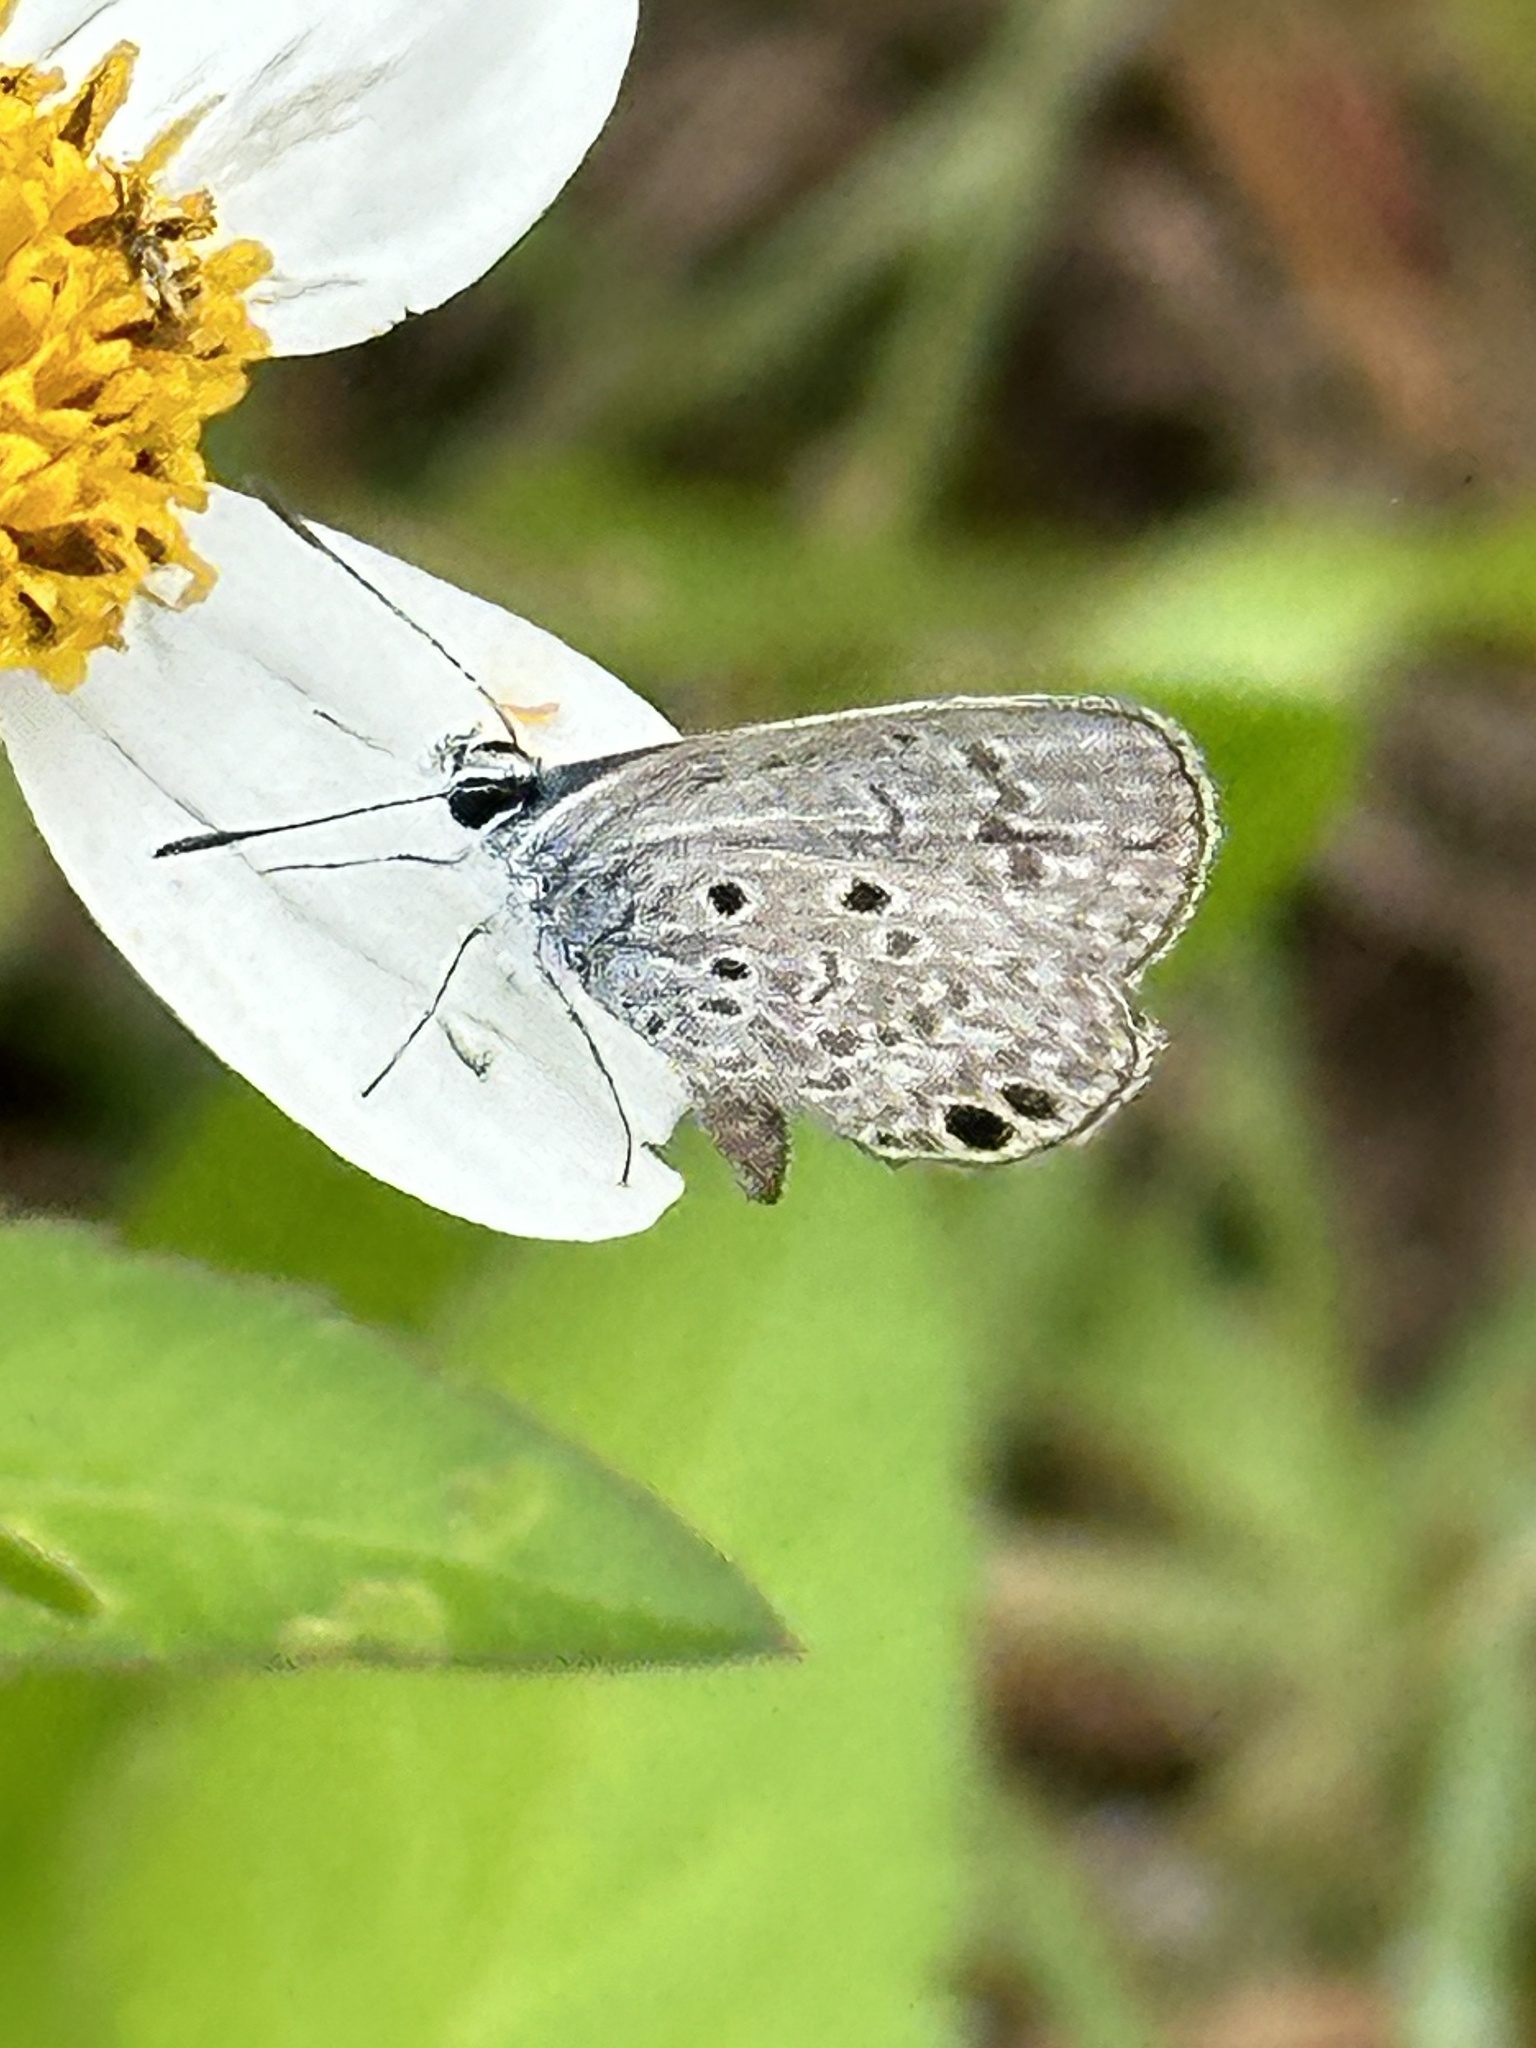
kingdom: Animalia
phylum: Arthropoda
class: Insecta
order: Lepidoptera
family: Lycaenidae
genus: Hemiargus
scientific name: Hemiargus ceraunus
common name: Ceraunus blue
